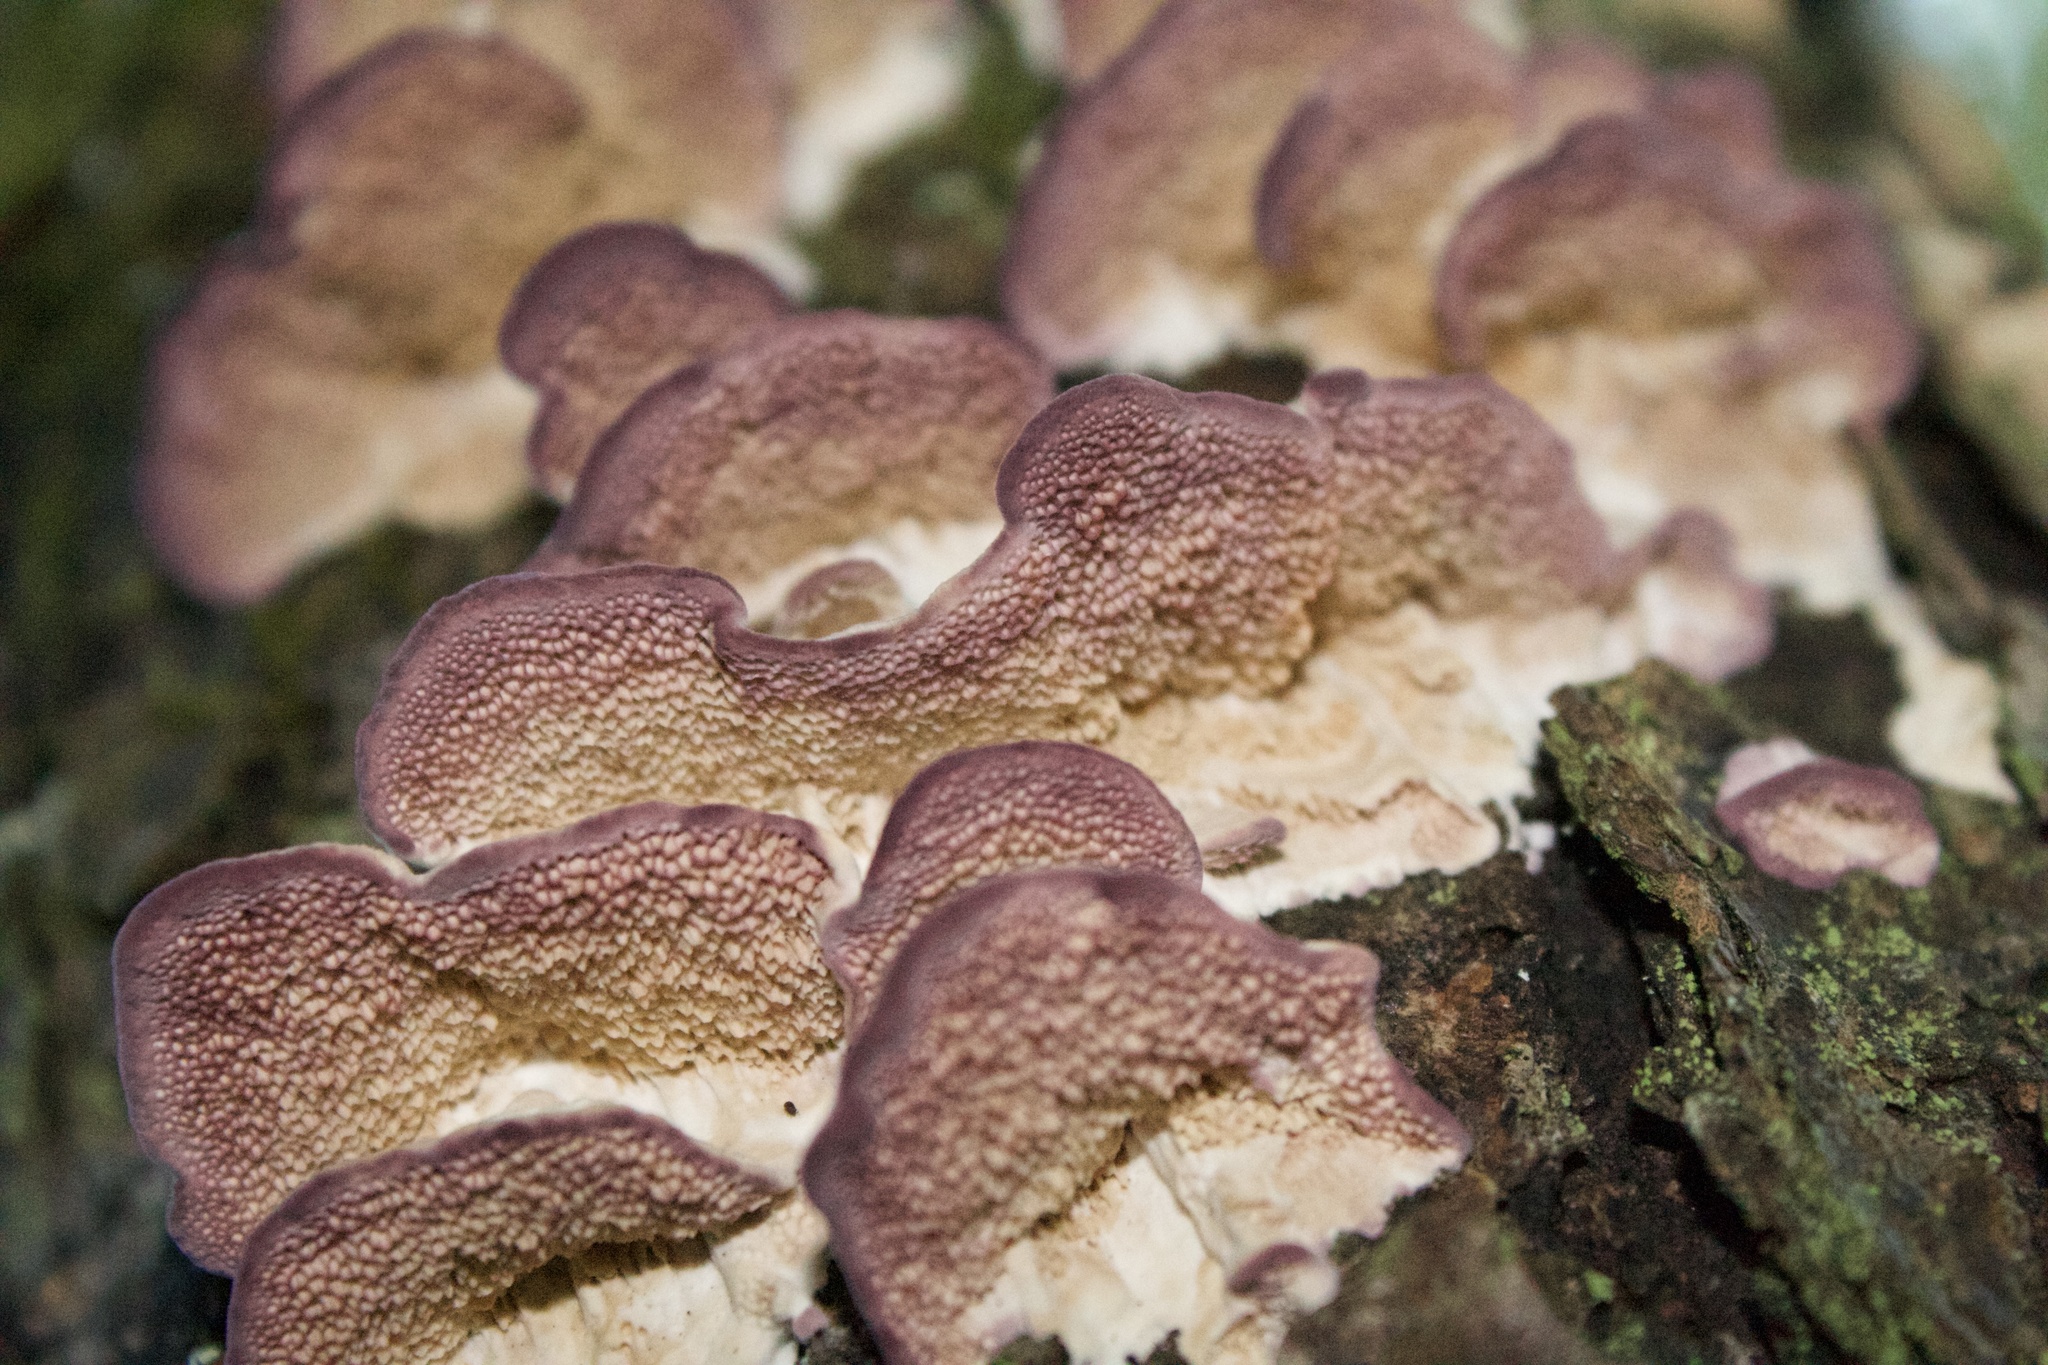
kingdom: Fungi
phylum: Basidiomycota
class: Agaricomycetes
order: Hymenochaetales
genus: Trichaptum
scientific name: Trichaptum biforme
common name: Violet-toothed polypore
